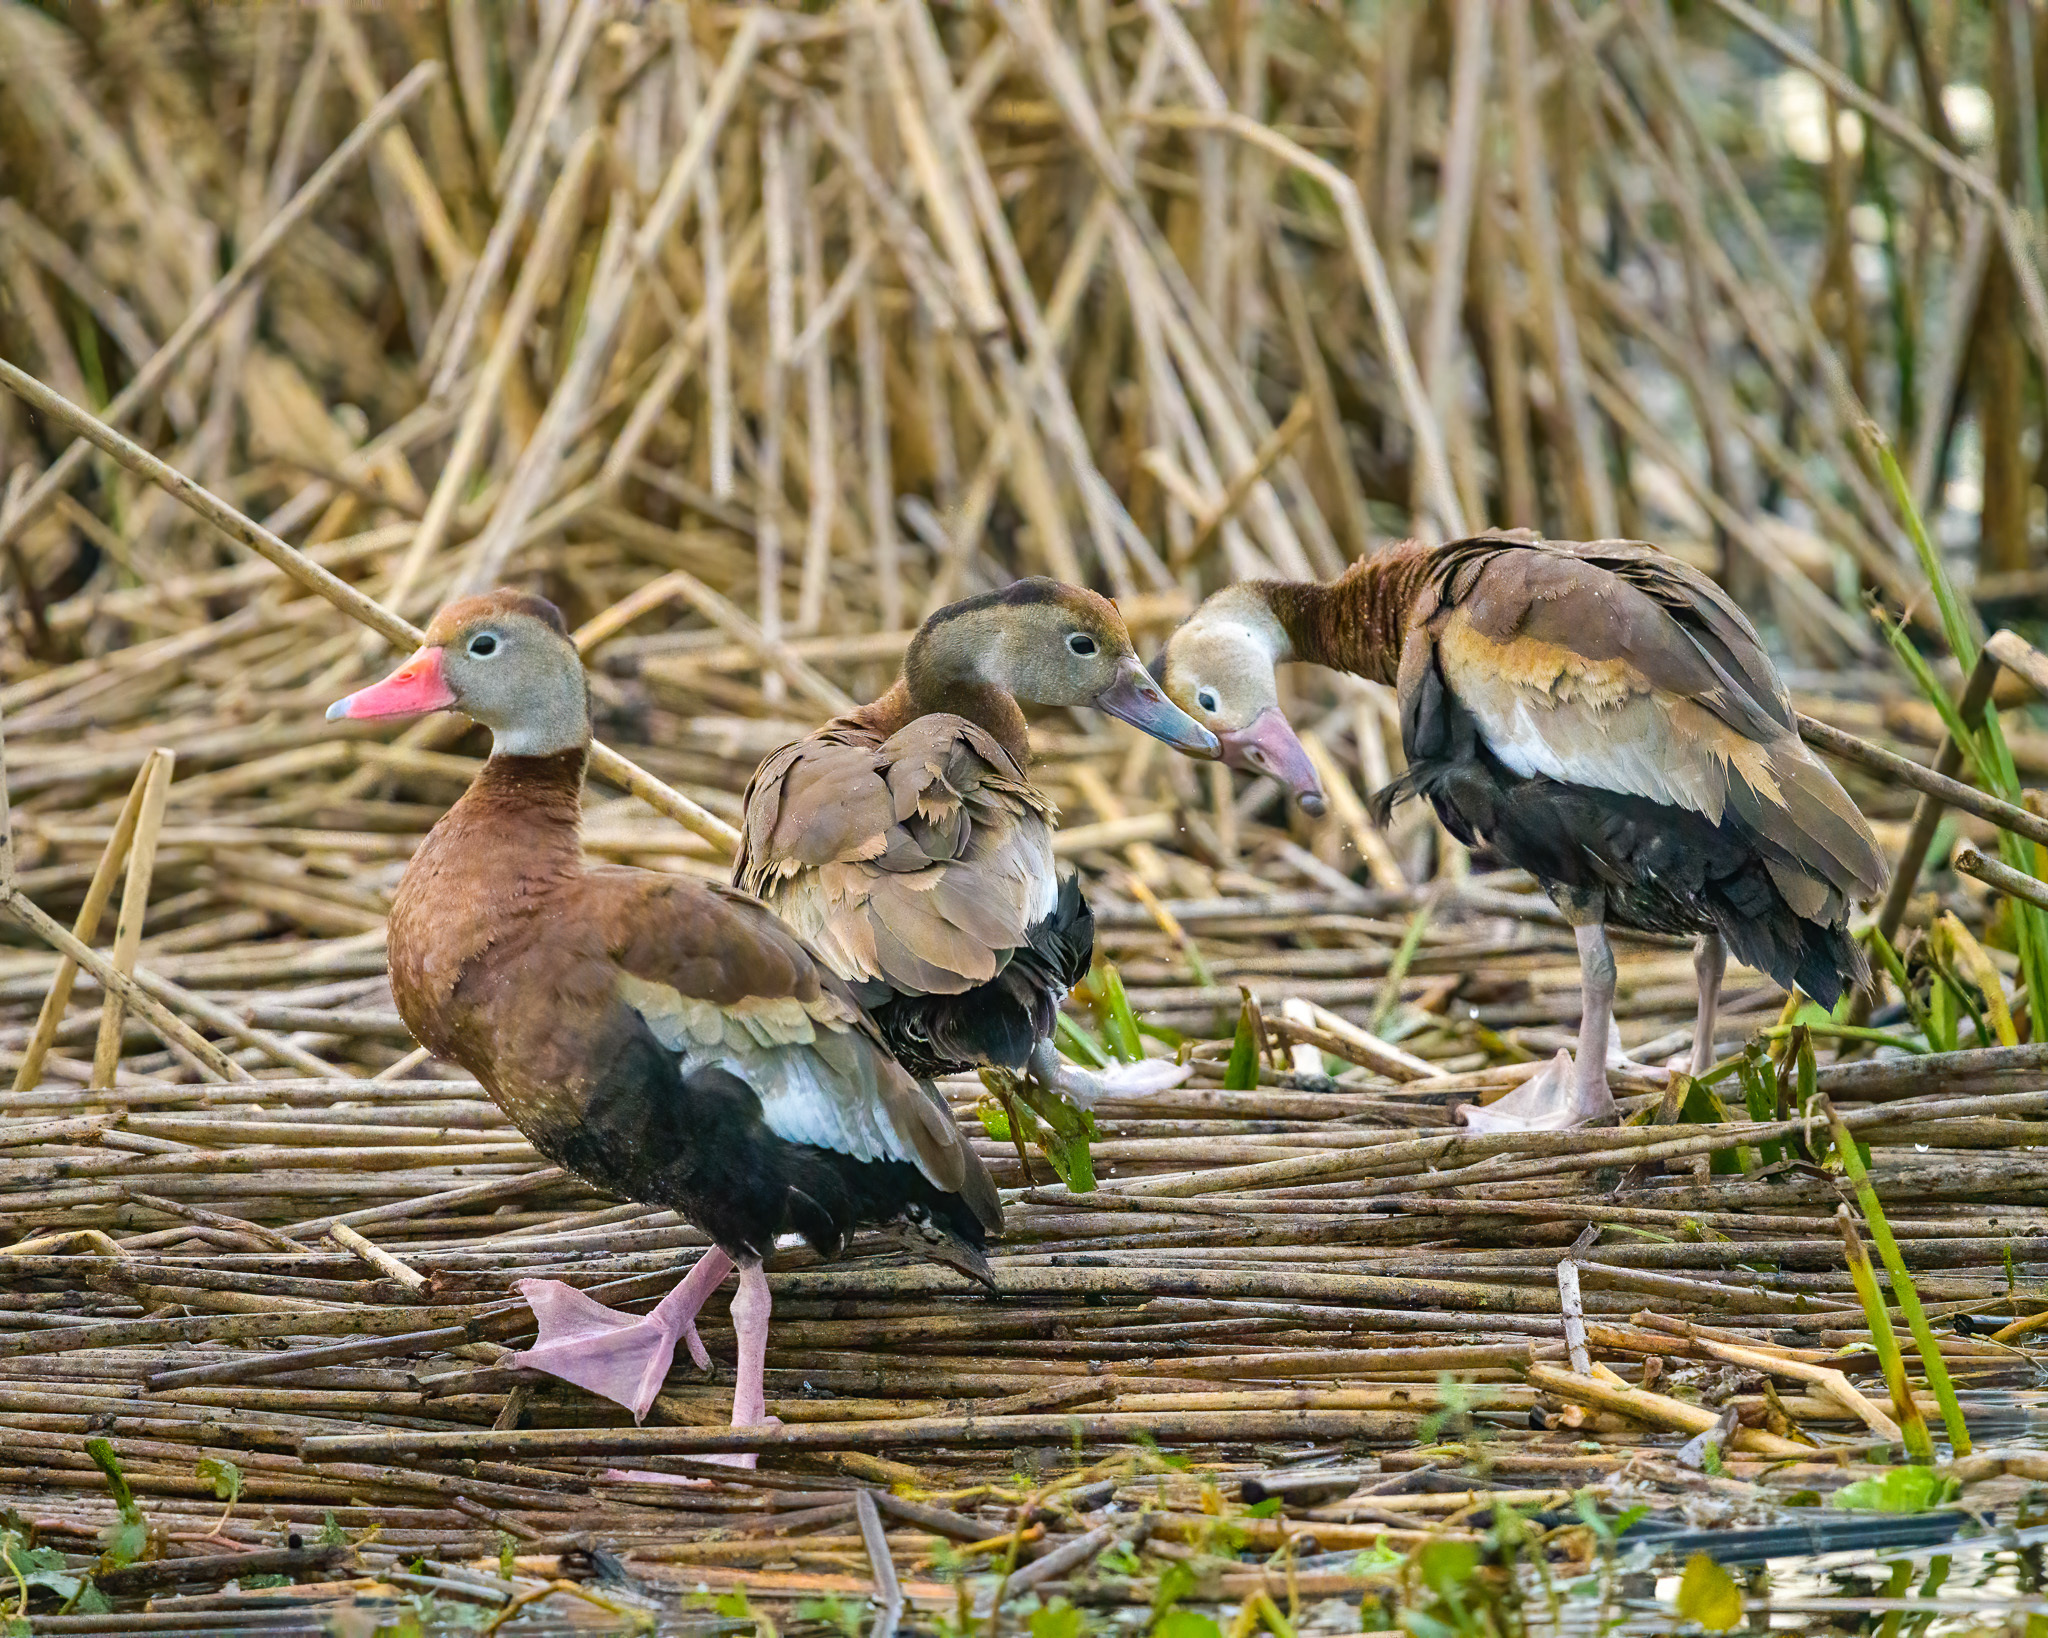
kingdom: Animalia
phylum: Chordata
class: Aves
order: Anseriformes
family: Anatidae
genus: Dendrocygna
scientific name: Dendrocygna autumnalis
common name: Black-bellied whistling duck
